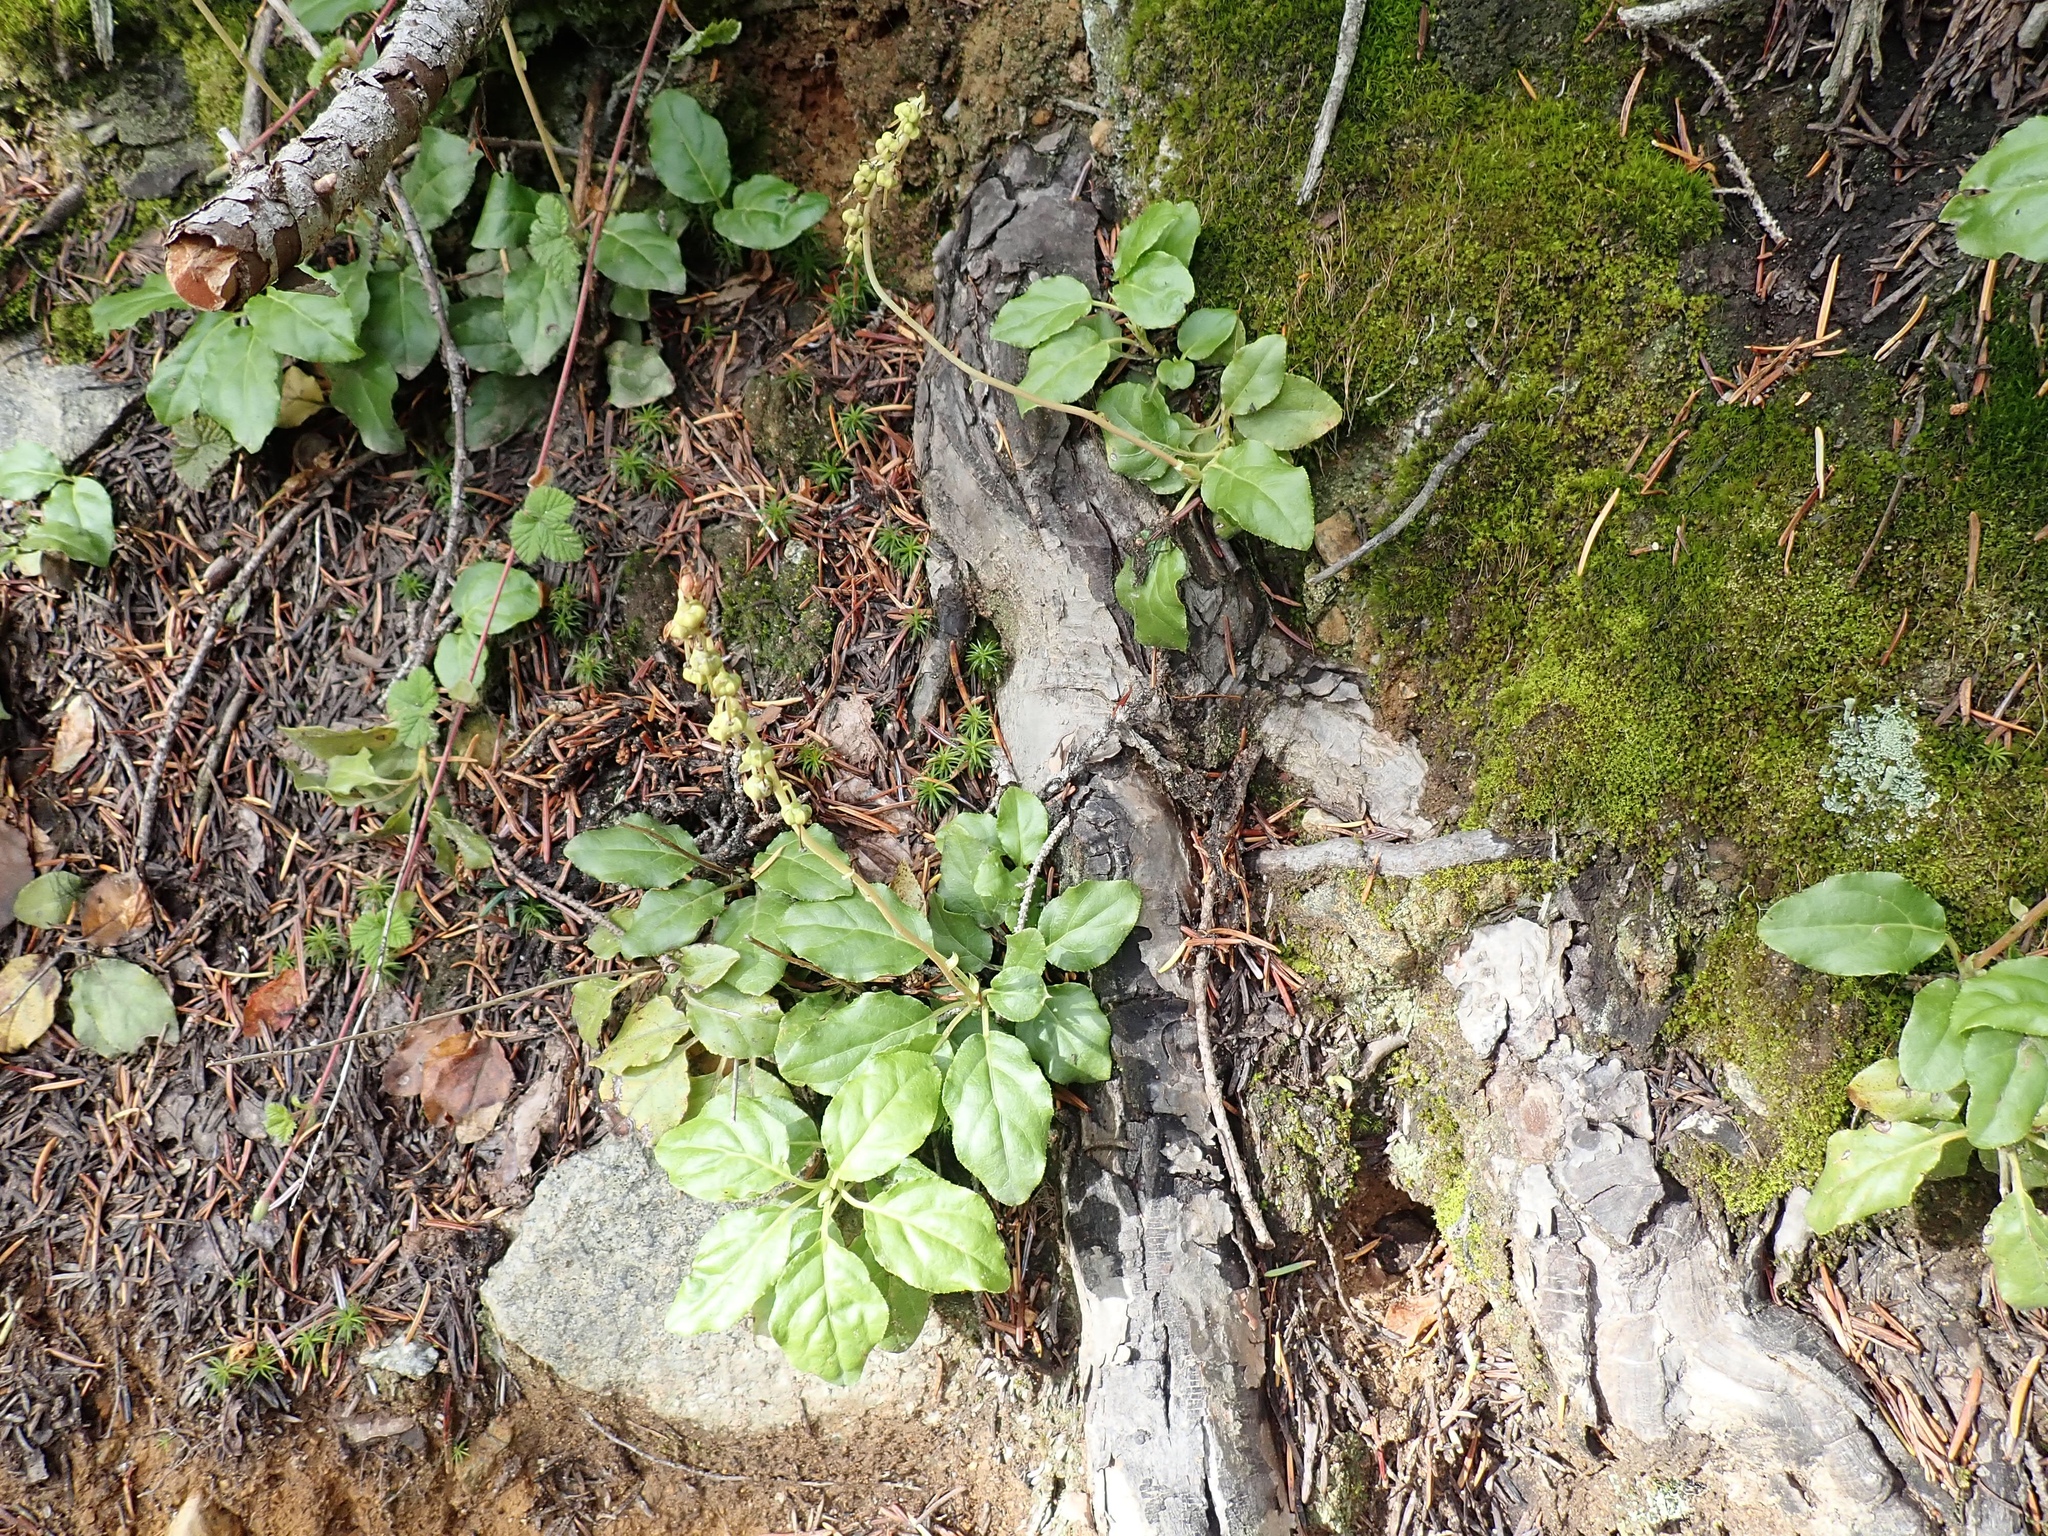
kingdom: Plantae
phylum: Tracheophyta
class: Magnoliopsida
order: Ericales
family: Ericaceae
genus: Orthilia
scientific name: Orthilia secunda
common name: One-sided orthilia
